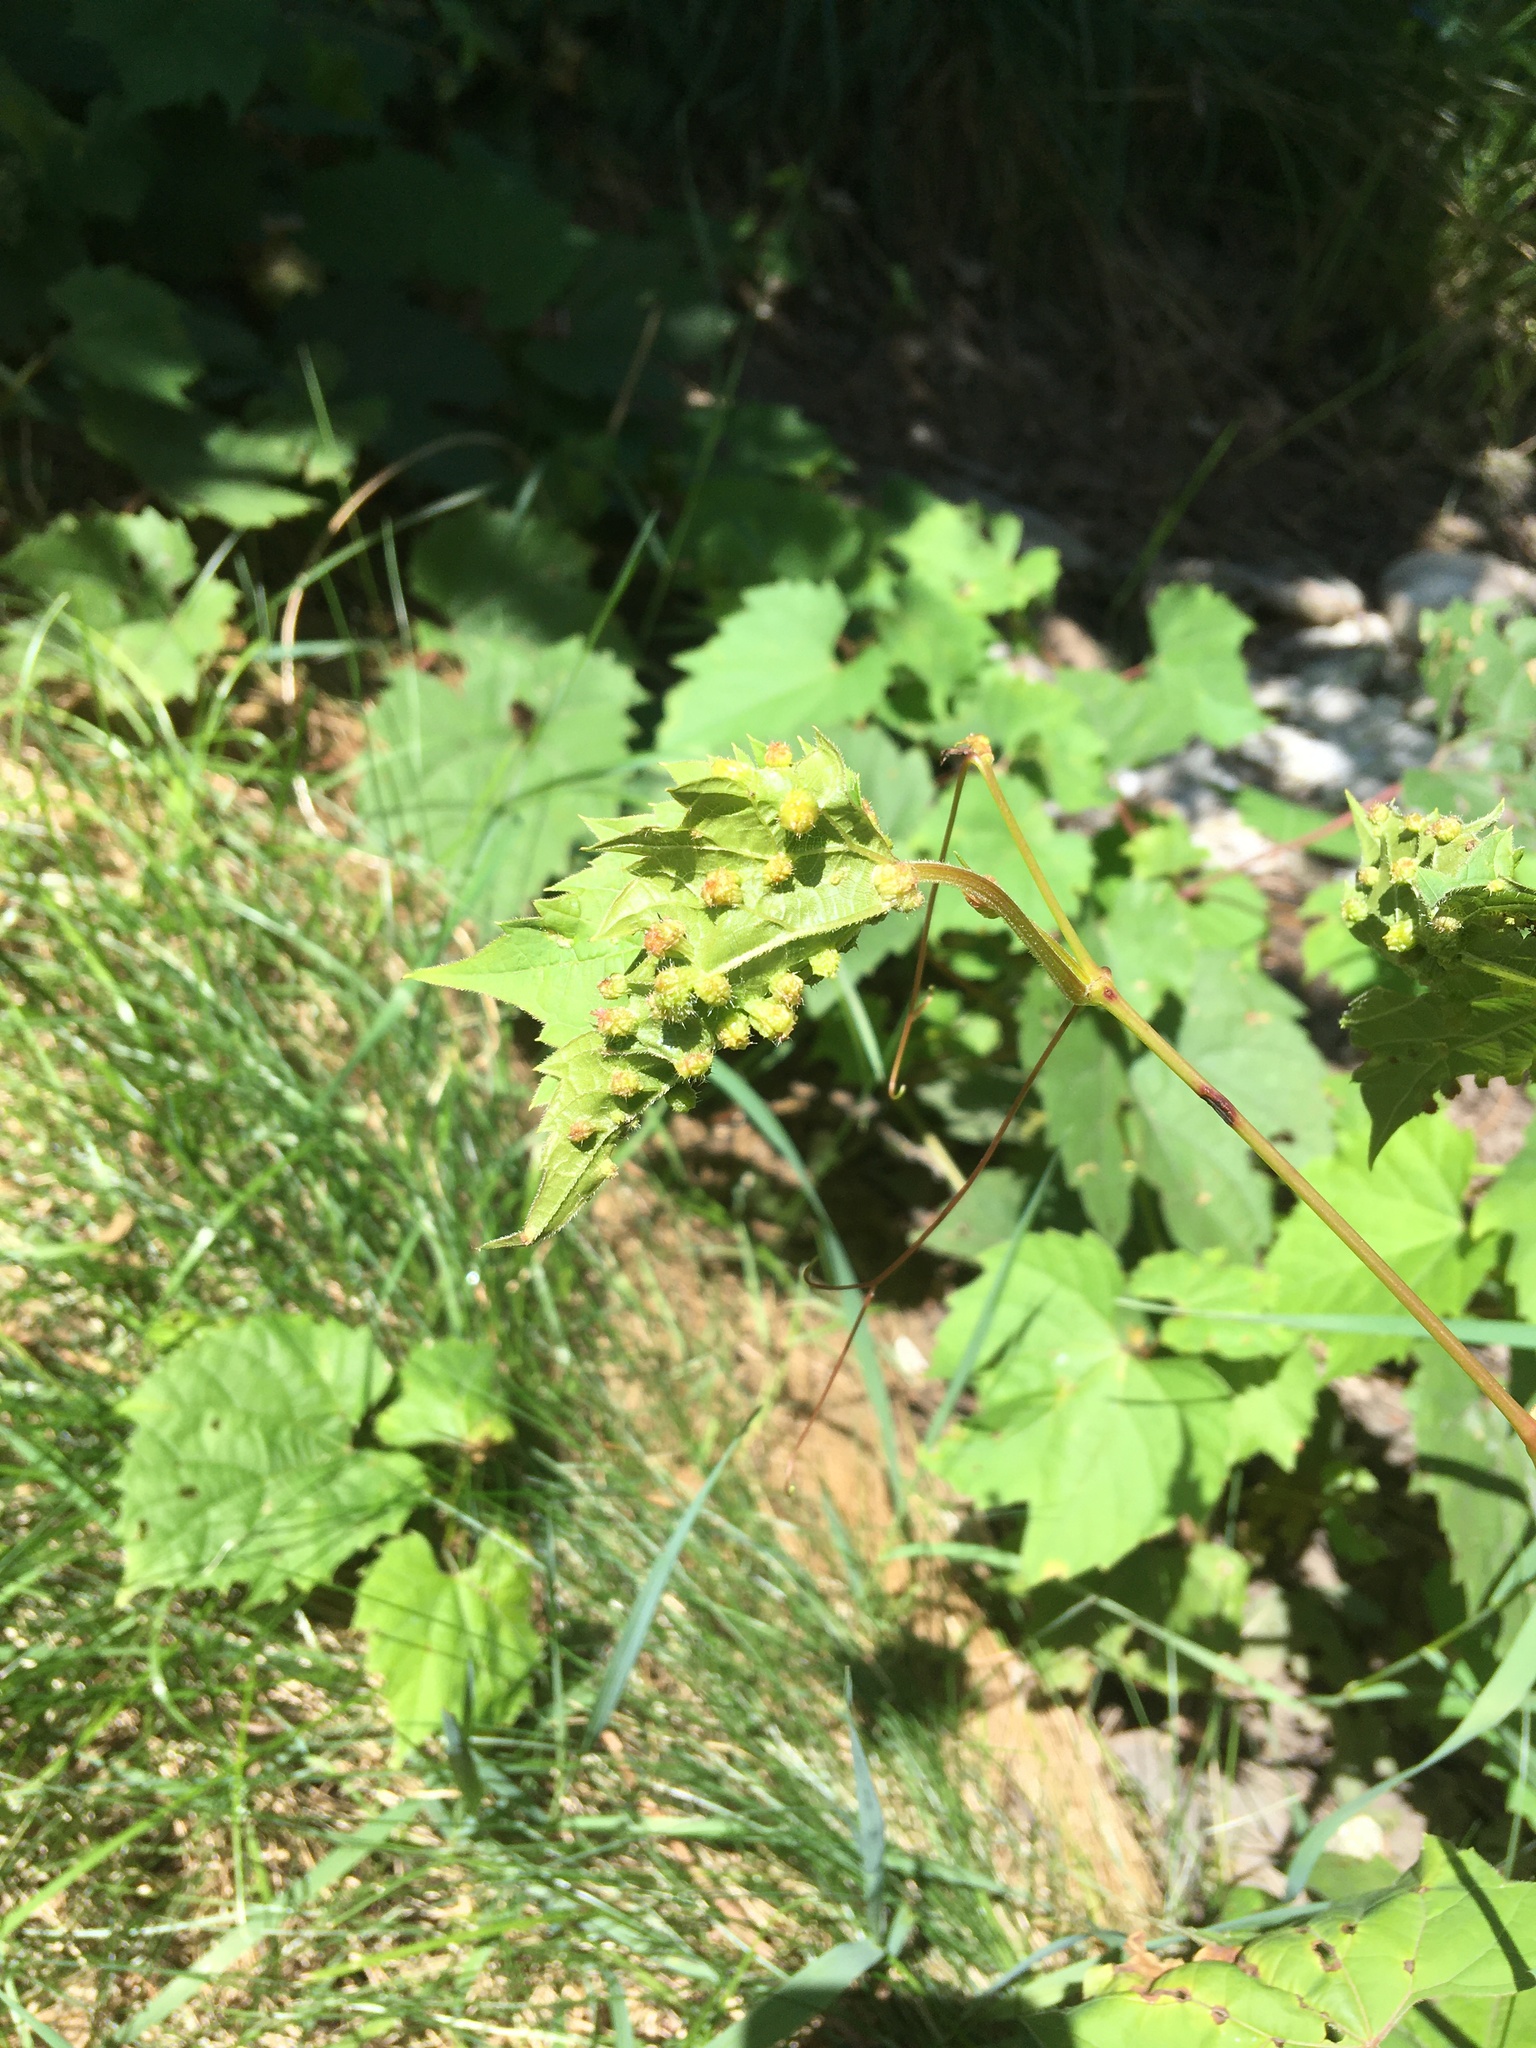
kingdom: Animalia
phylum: Arthropoda
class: Insecta
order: Hemiptera
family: Phylloxeridae
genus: Daktulosphaira
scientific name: Daktulosphaira vitifoliae
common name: Grape phylloxera
